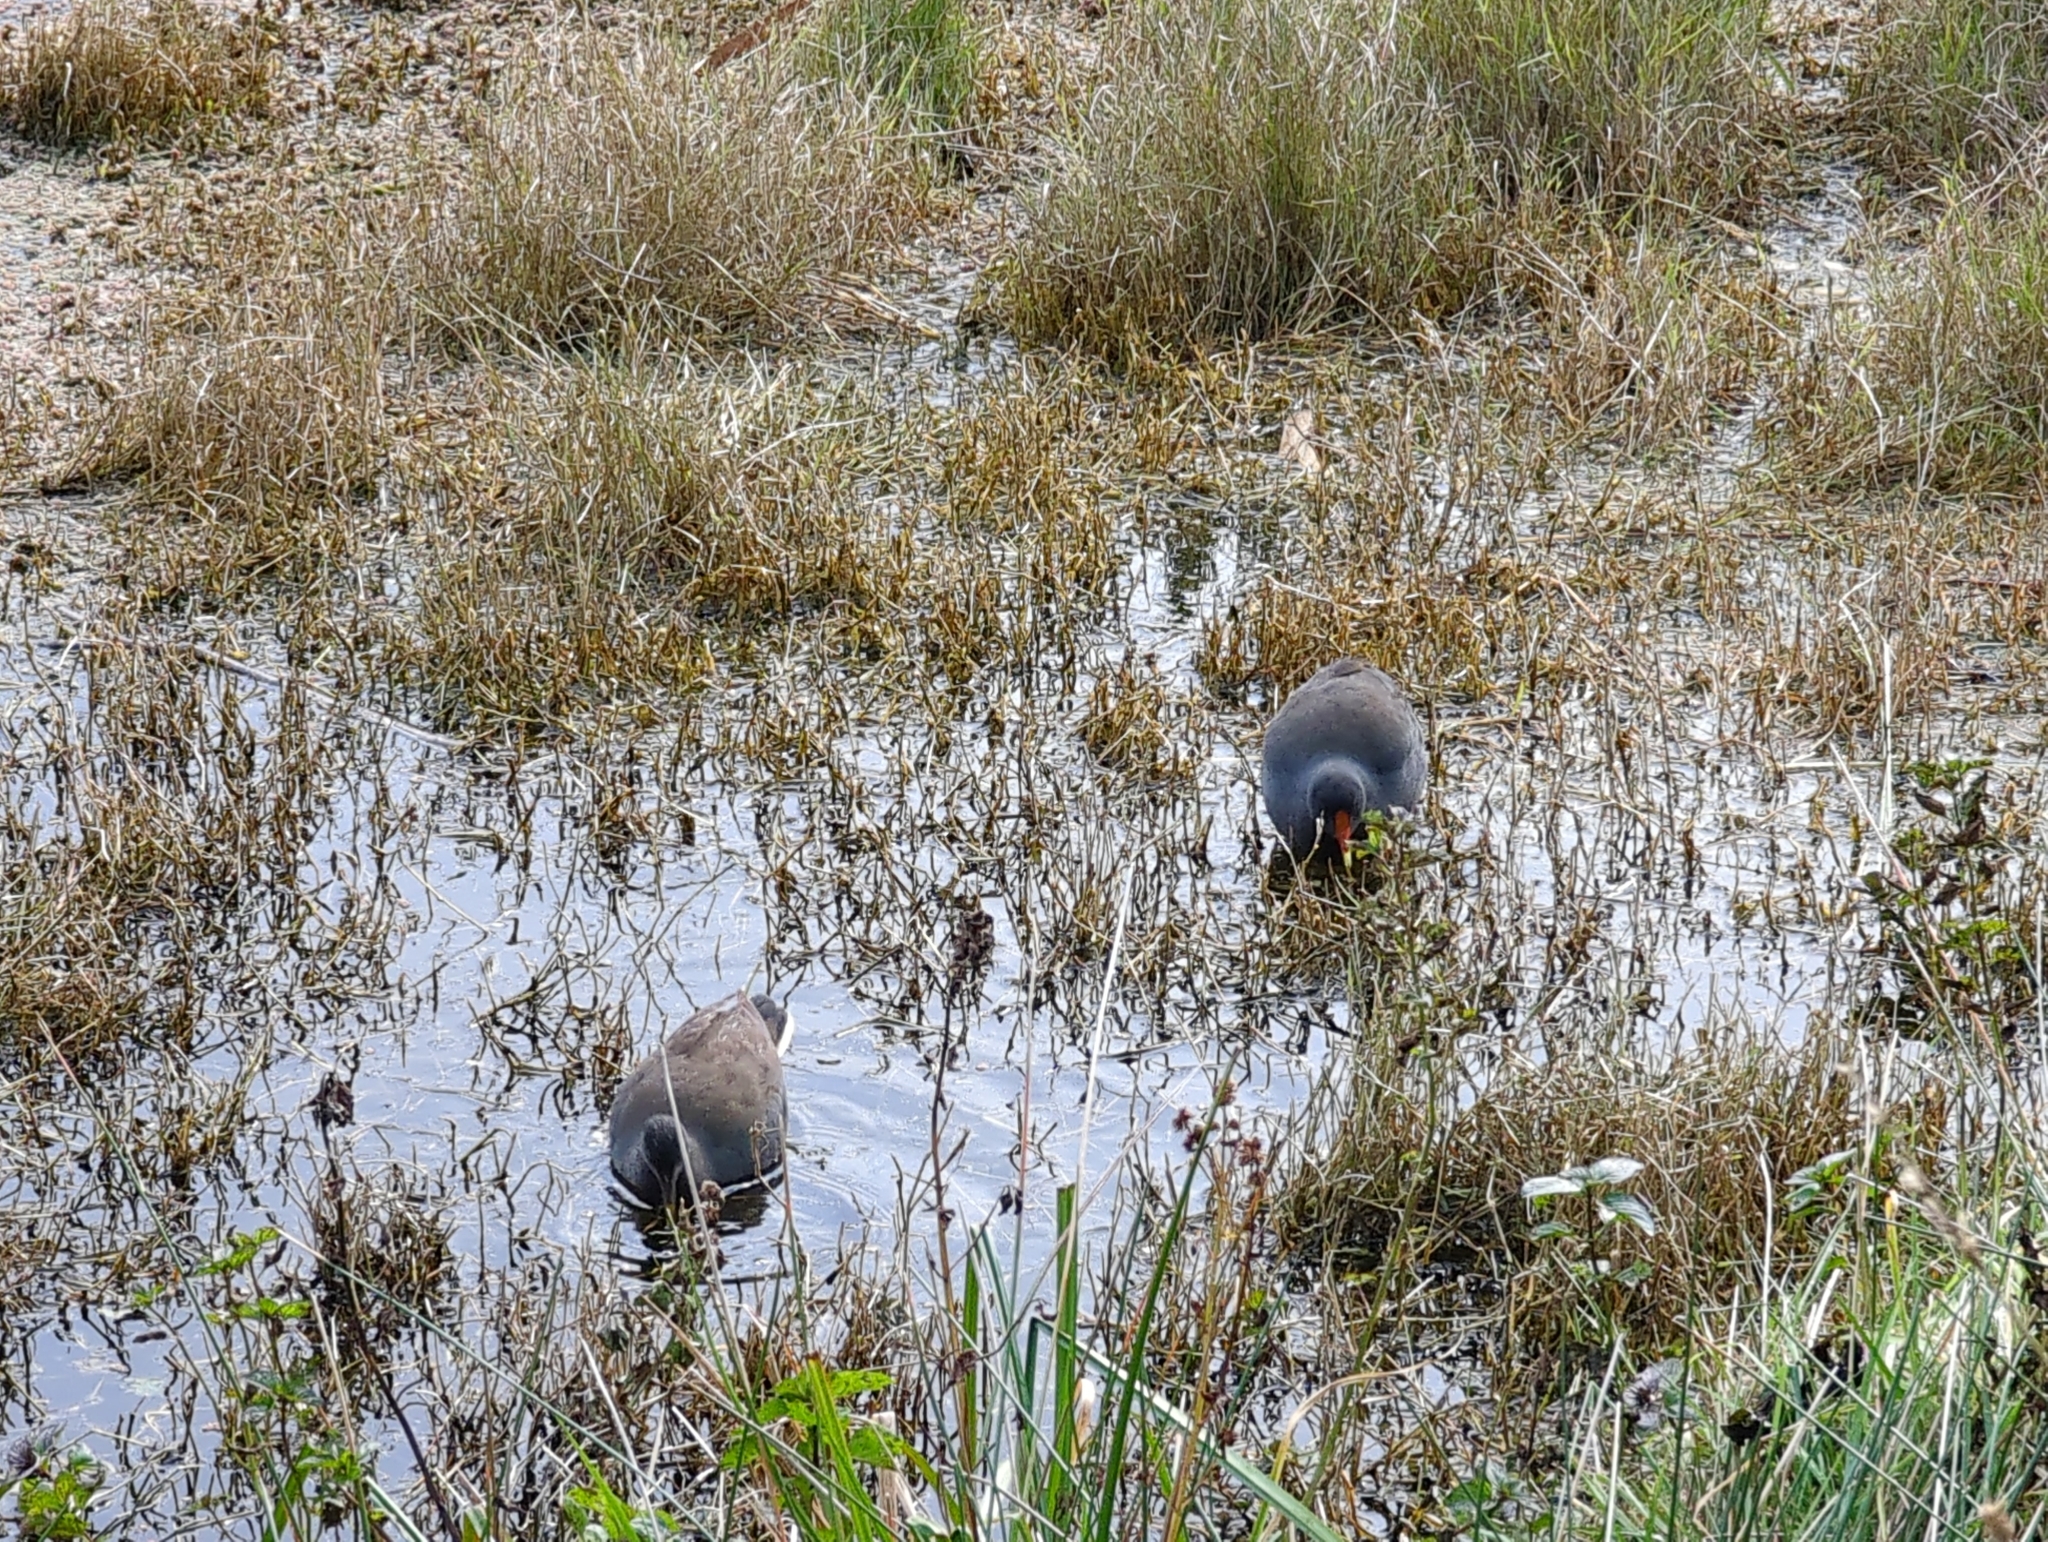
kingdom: Animalia
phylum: Chordata
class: Aves
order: Gruiformes
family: Rallidae
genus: Gallinula
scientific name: Gallinula tenebrosa
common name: Dusky moorhen
